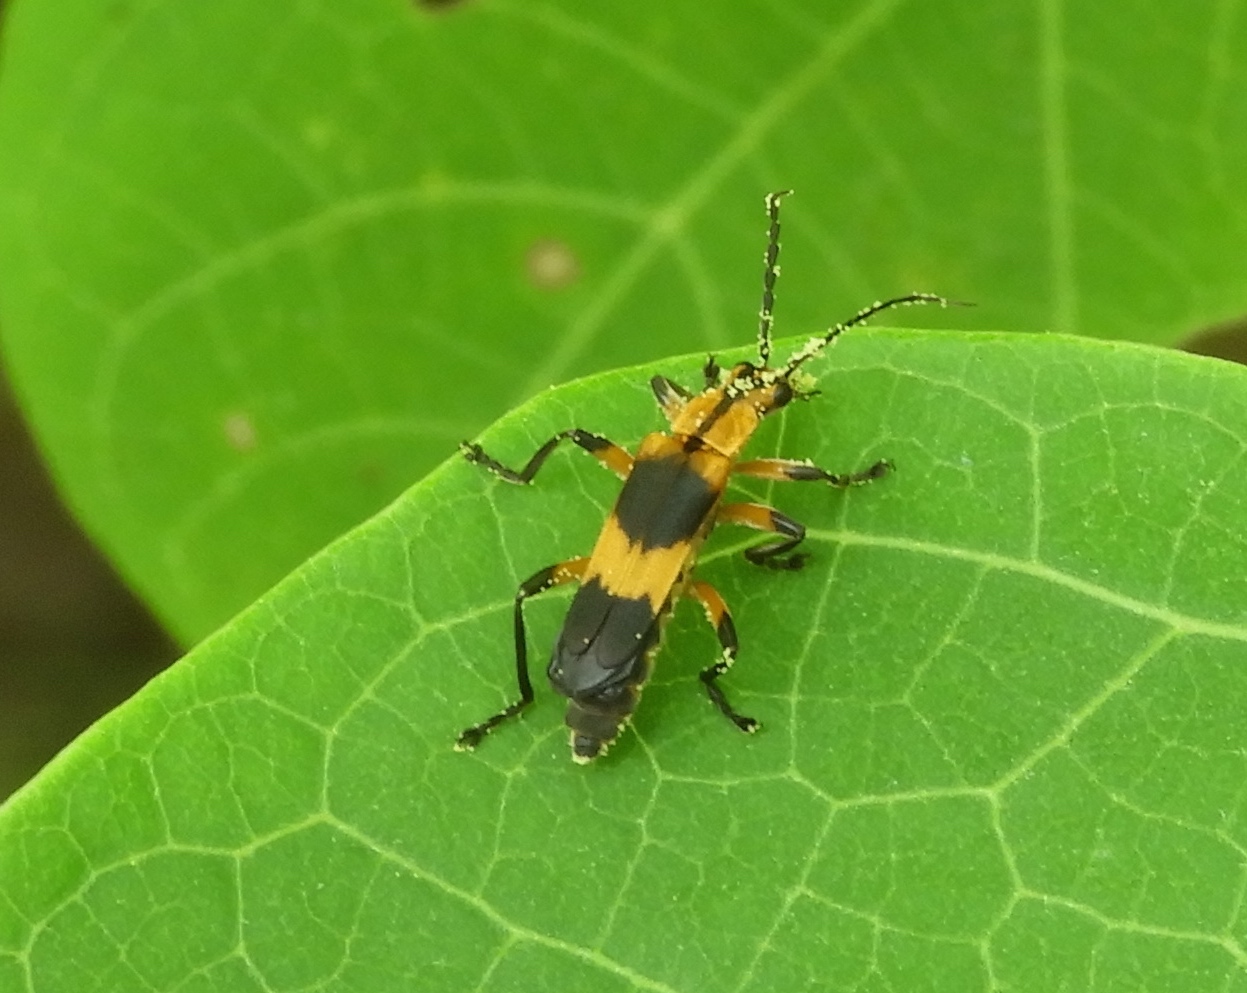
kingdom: Animalia
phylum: Arthropoda
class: Insecta
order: Coleoptera
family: Cantharidae
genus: Daiphron
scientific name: Daiphron proteum
